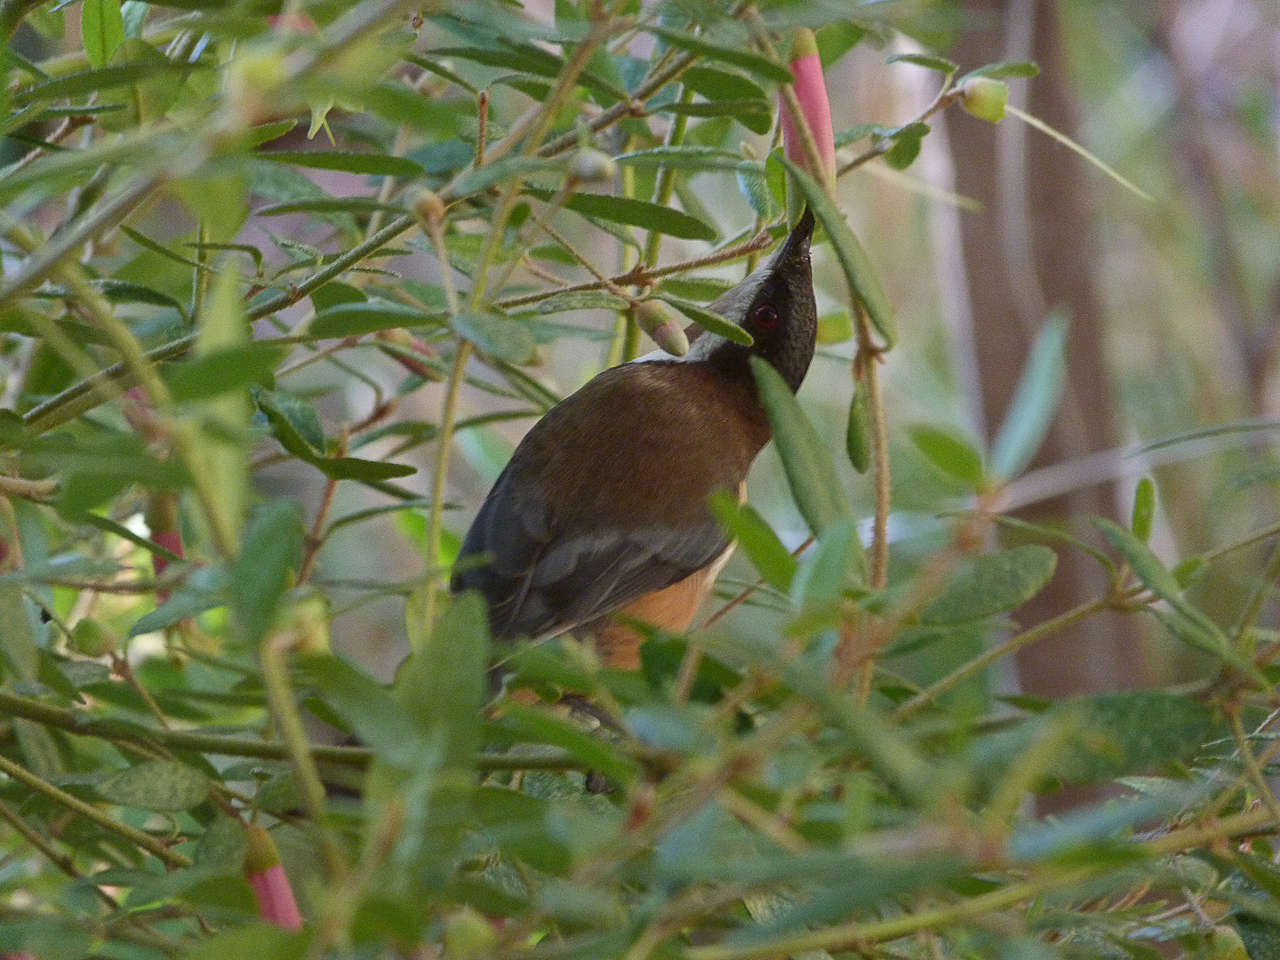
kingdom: Animalia
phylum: Chordata
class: Aves
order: Passeriformes
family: Meliphagidae
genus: Acanthorhynchus
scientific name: Acanthorhynchus tenuirostris
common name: Eastern spinebill
